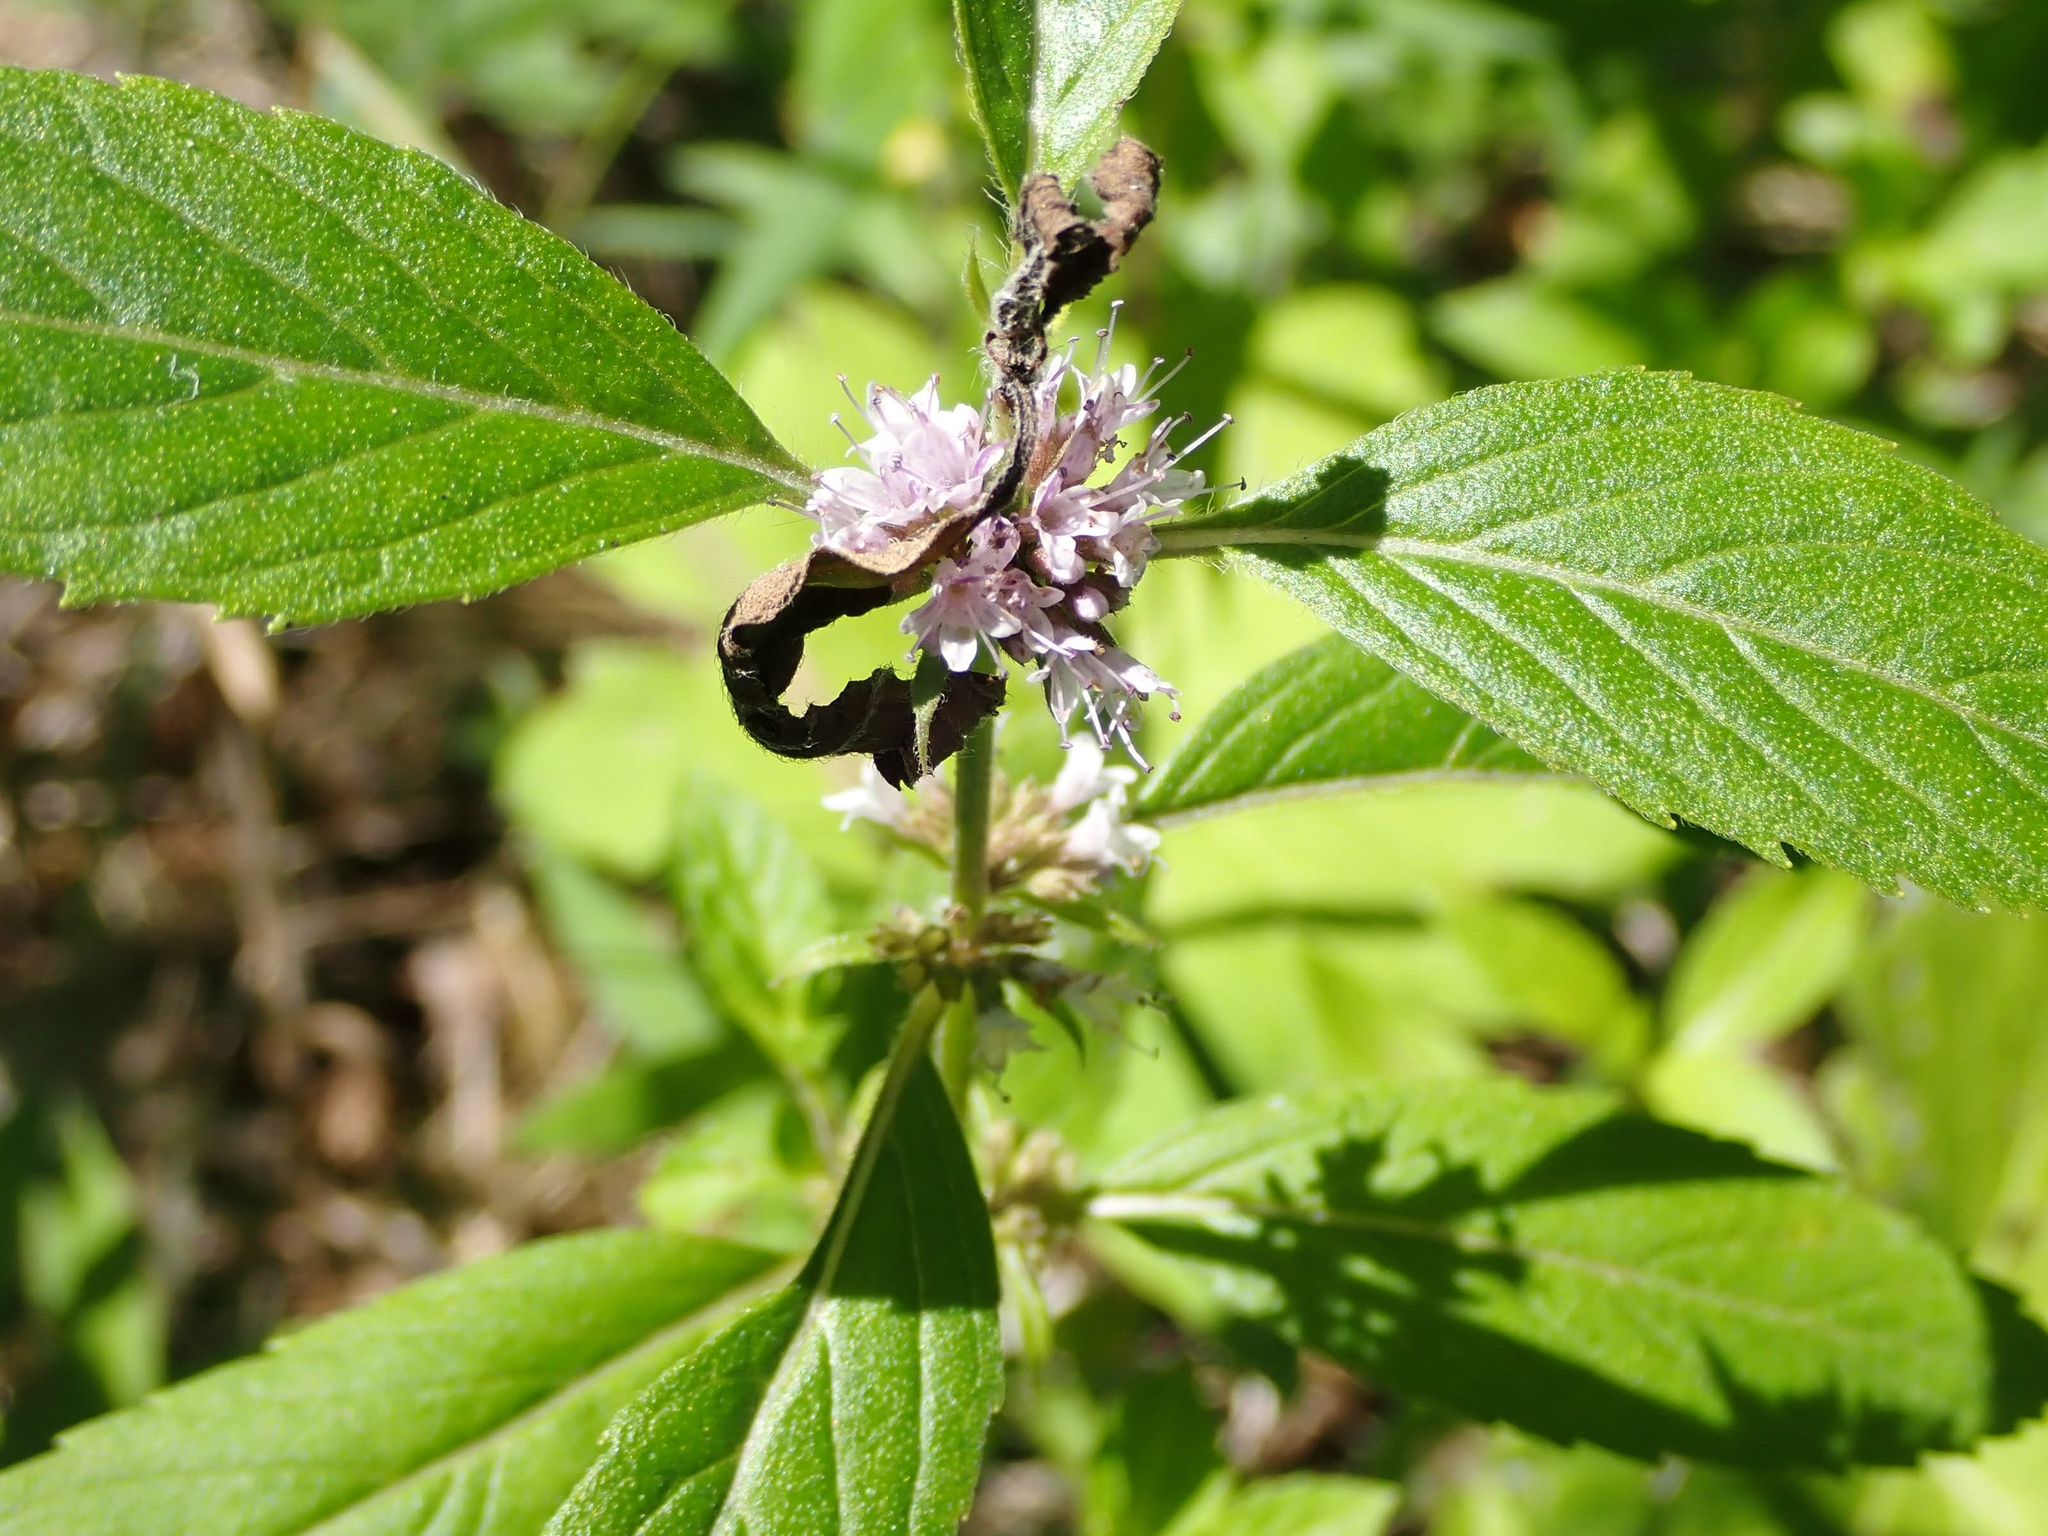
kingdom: Plantae
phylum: Tracheophyta
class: Magnoliopsida
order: Lamiales
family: Lamiaceae
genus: Mentha
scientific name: Mentha canadensis
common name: American corn mint
